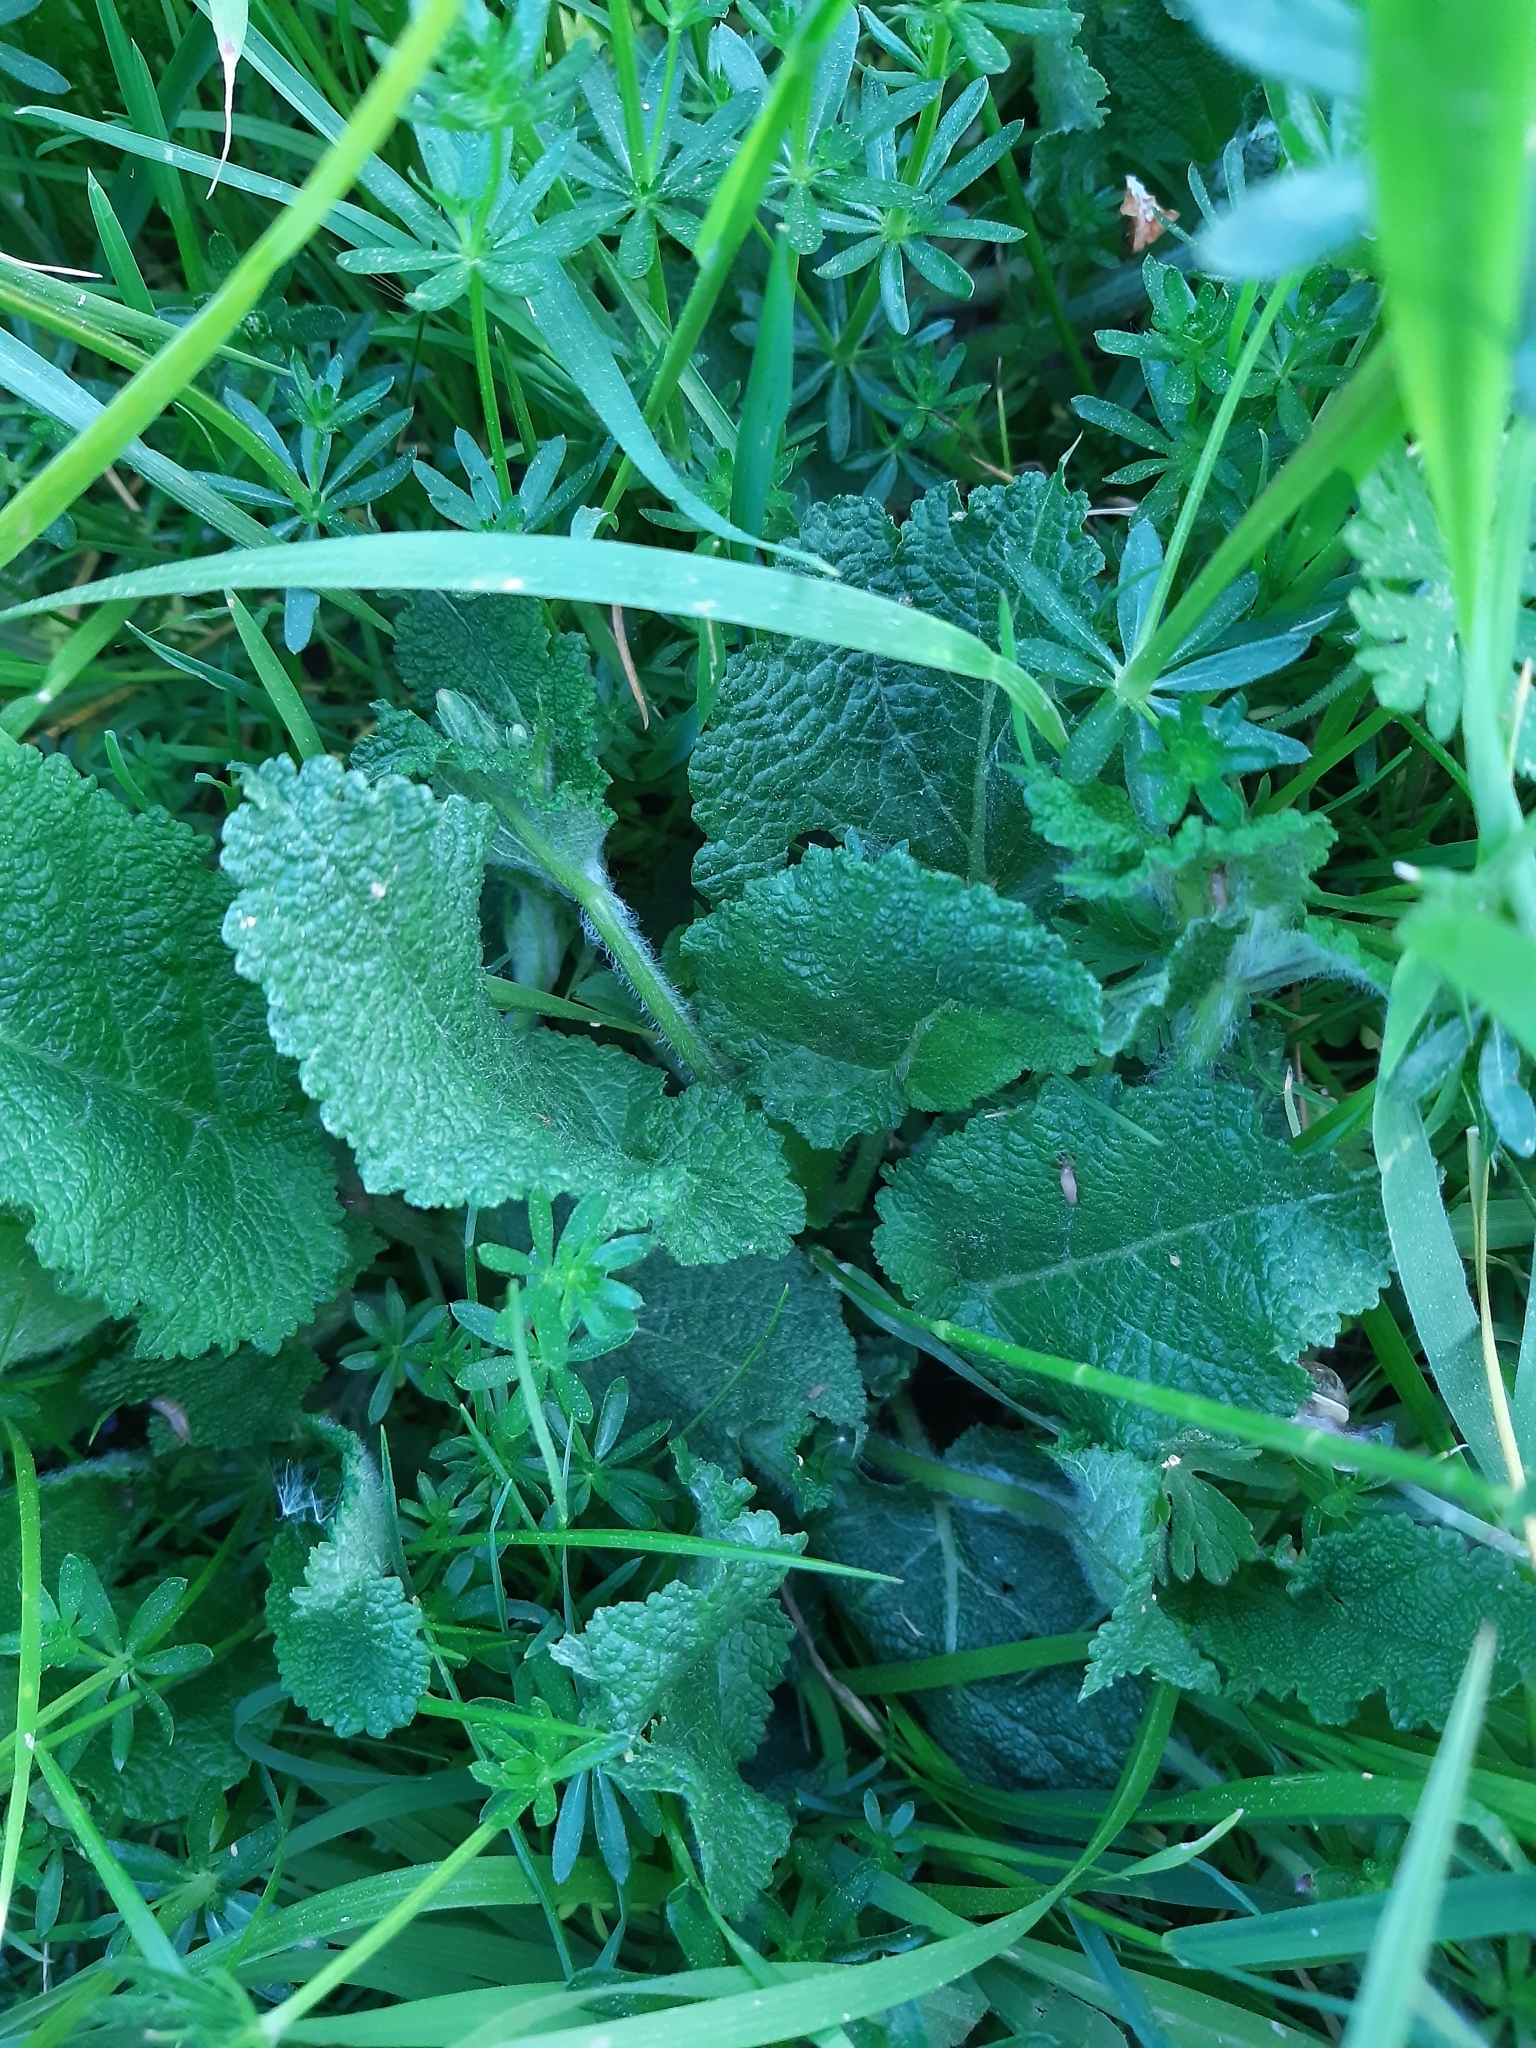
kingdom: Plantae
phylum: Tracheophyta
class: Magnoliopsida
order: Lamiales
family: Lamiaceae
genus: Salvia
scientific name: Salvia pratensis
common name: Meadow sage
